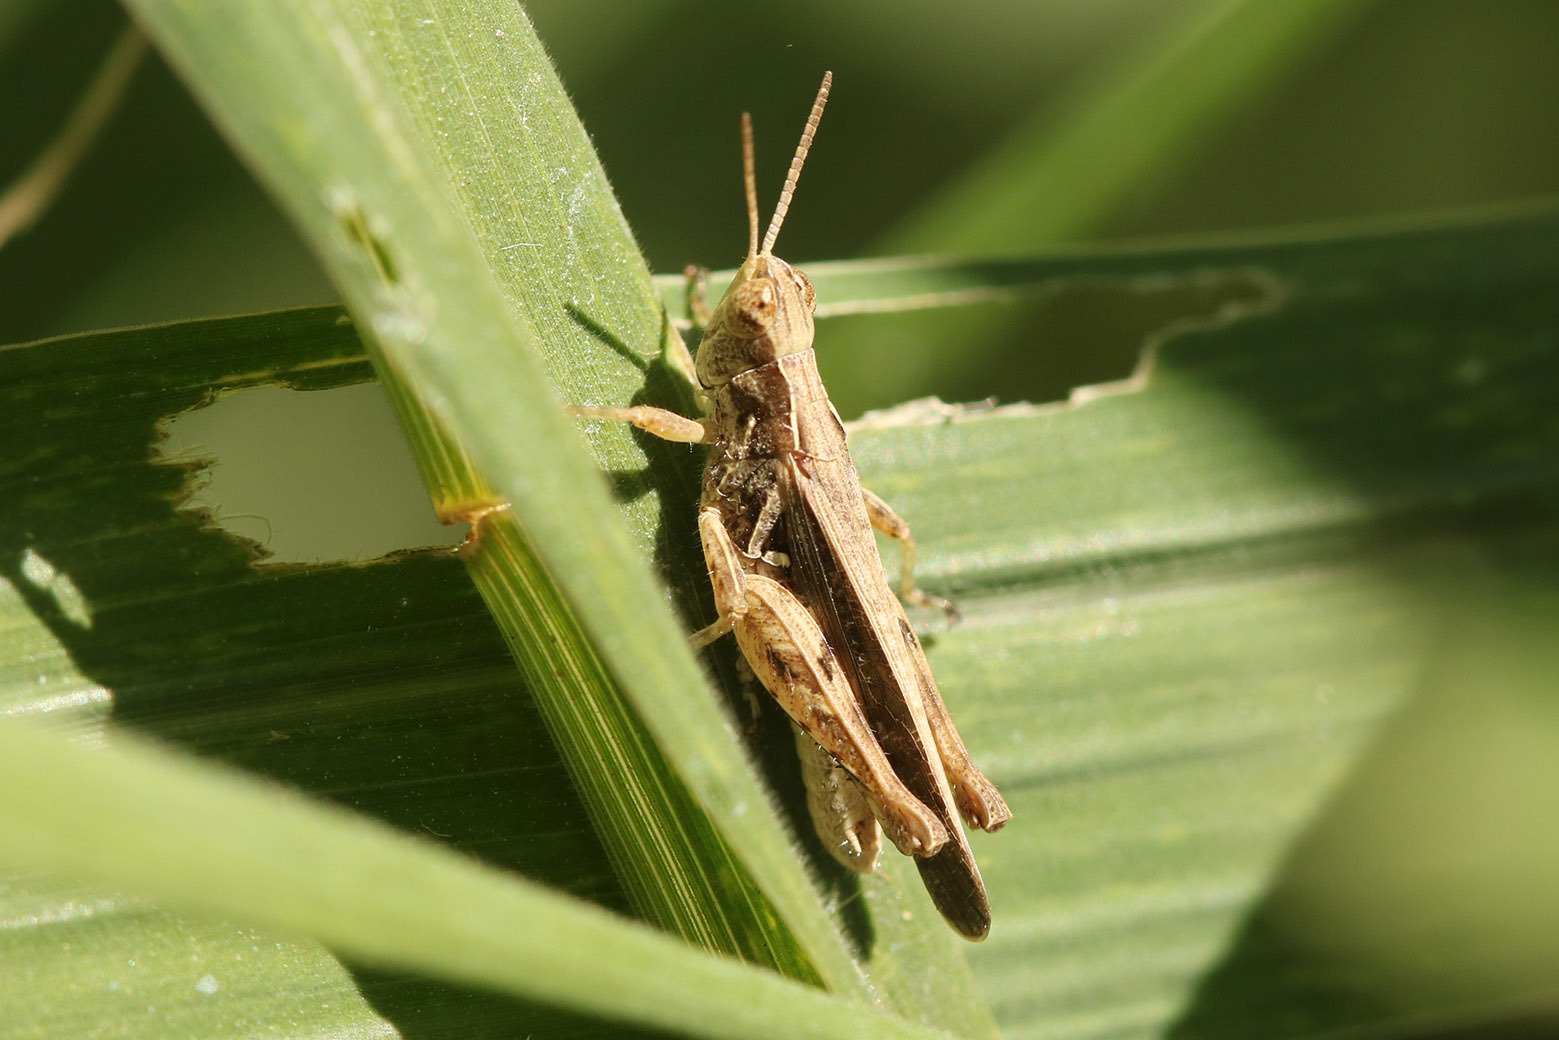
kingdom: Animalia
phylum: Arthropoda
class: Insecta
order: Orthoptera
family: Acrididae
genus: Orphulella
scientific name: Orphulella punctata
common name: Slant-faced grasshopper
